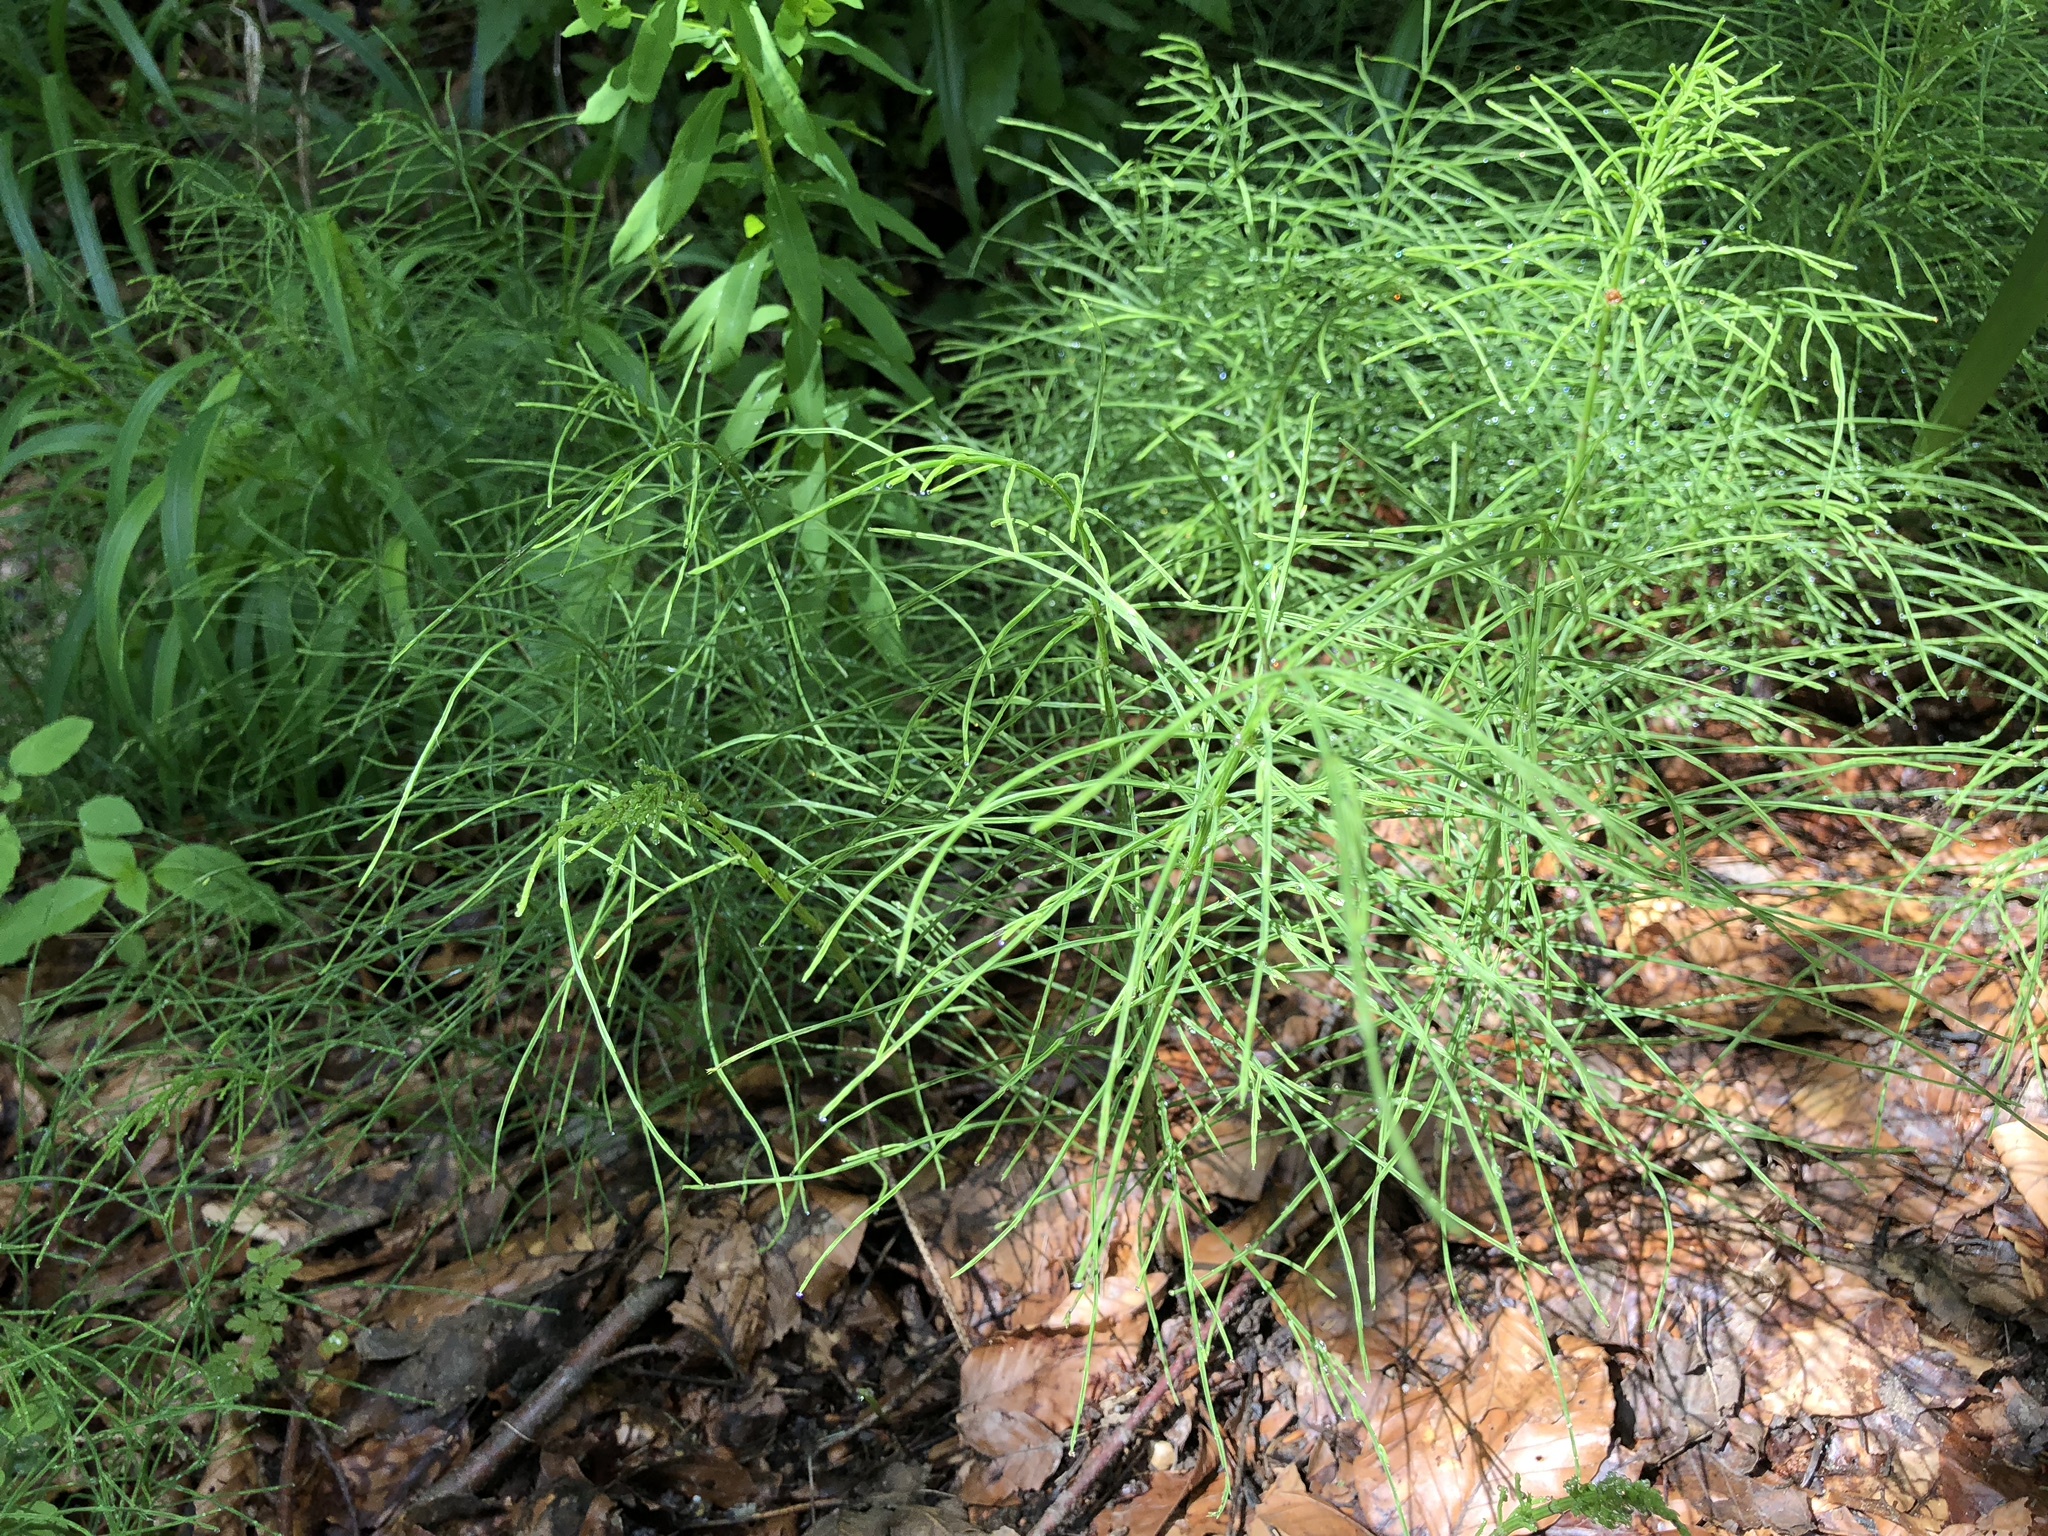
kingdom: Plantae
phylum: Tracheophyta
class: Polypodiopsida
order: Equisetales
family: Equisetaceae
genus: Equisetum
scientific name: Equisetum arvense
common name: Field horsetail
